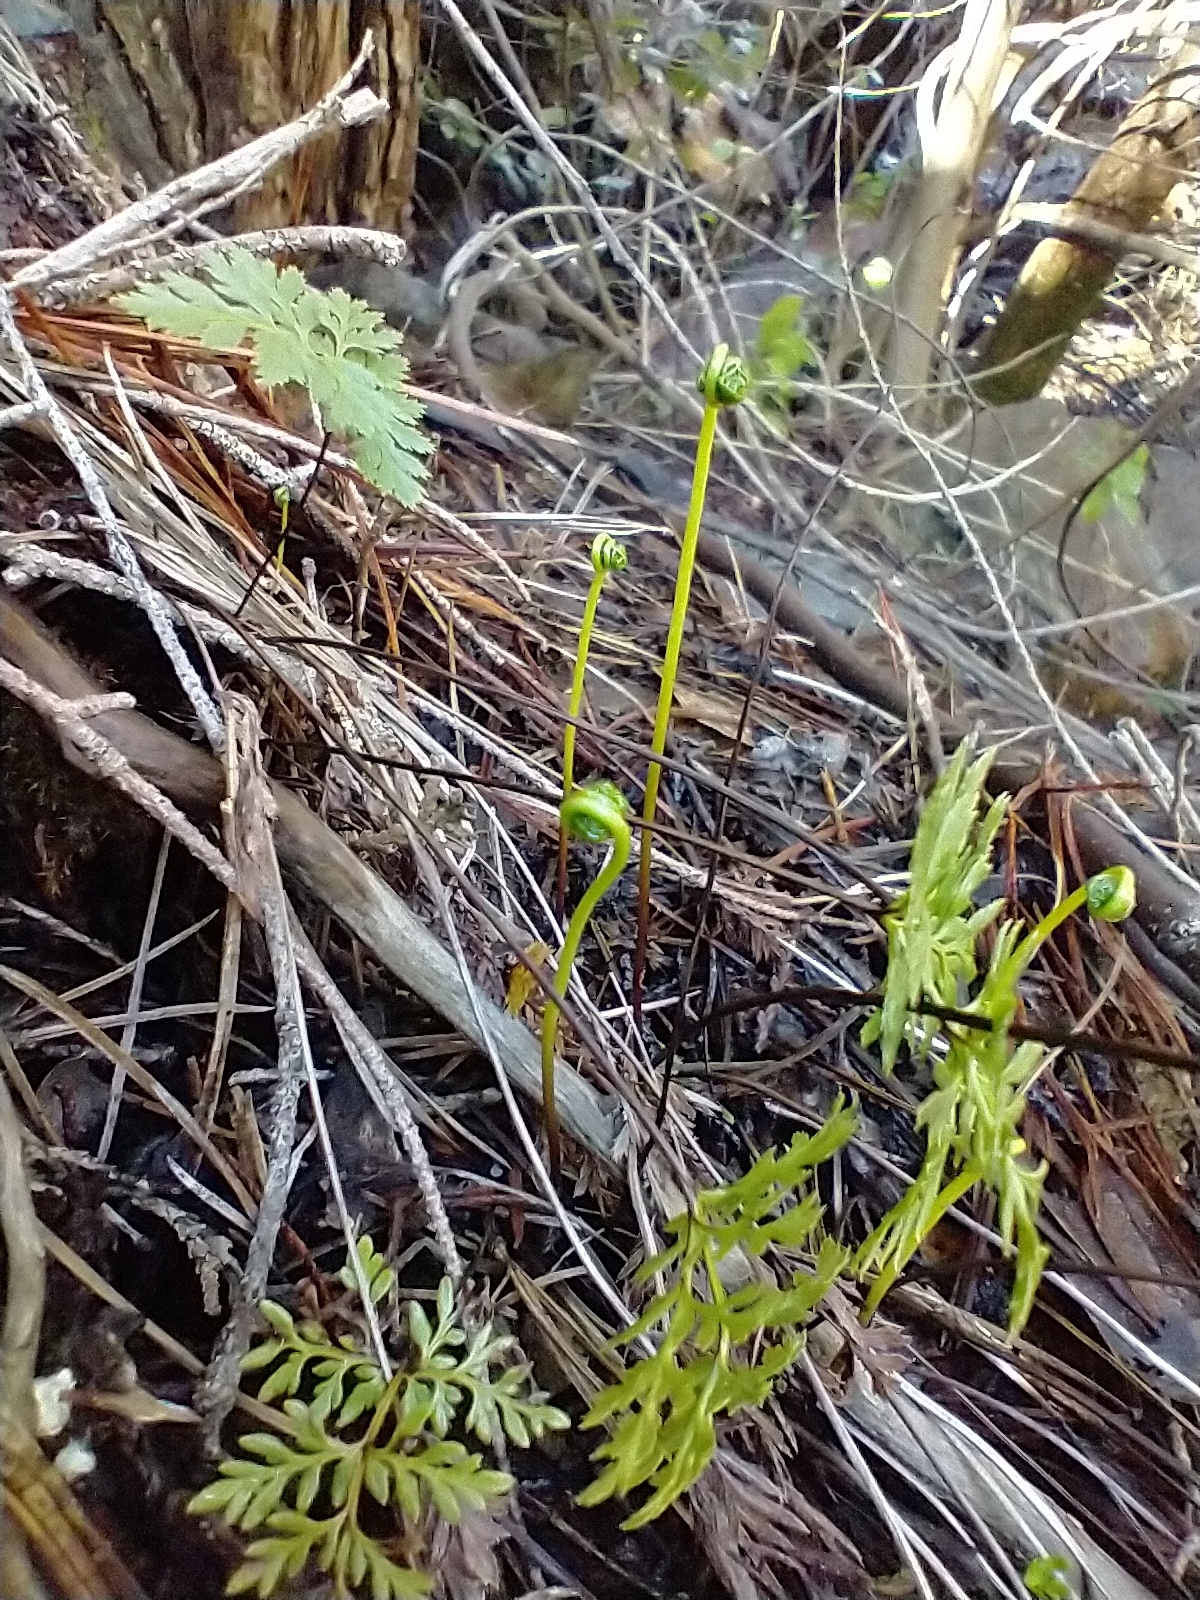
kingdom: Plantae
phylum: Tracheophyta
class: Polypodiopsida
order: Polypodiales
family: Pteridaceae
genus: Aspidotis
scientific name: Aspidotis densa
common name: Indian's dream
